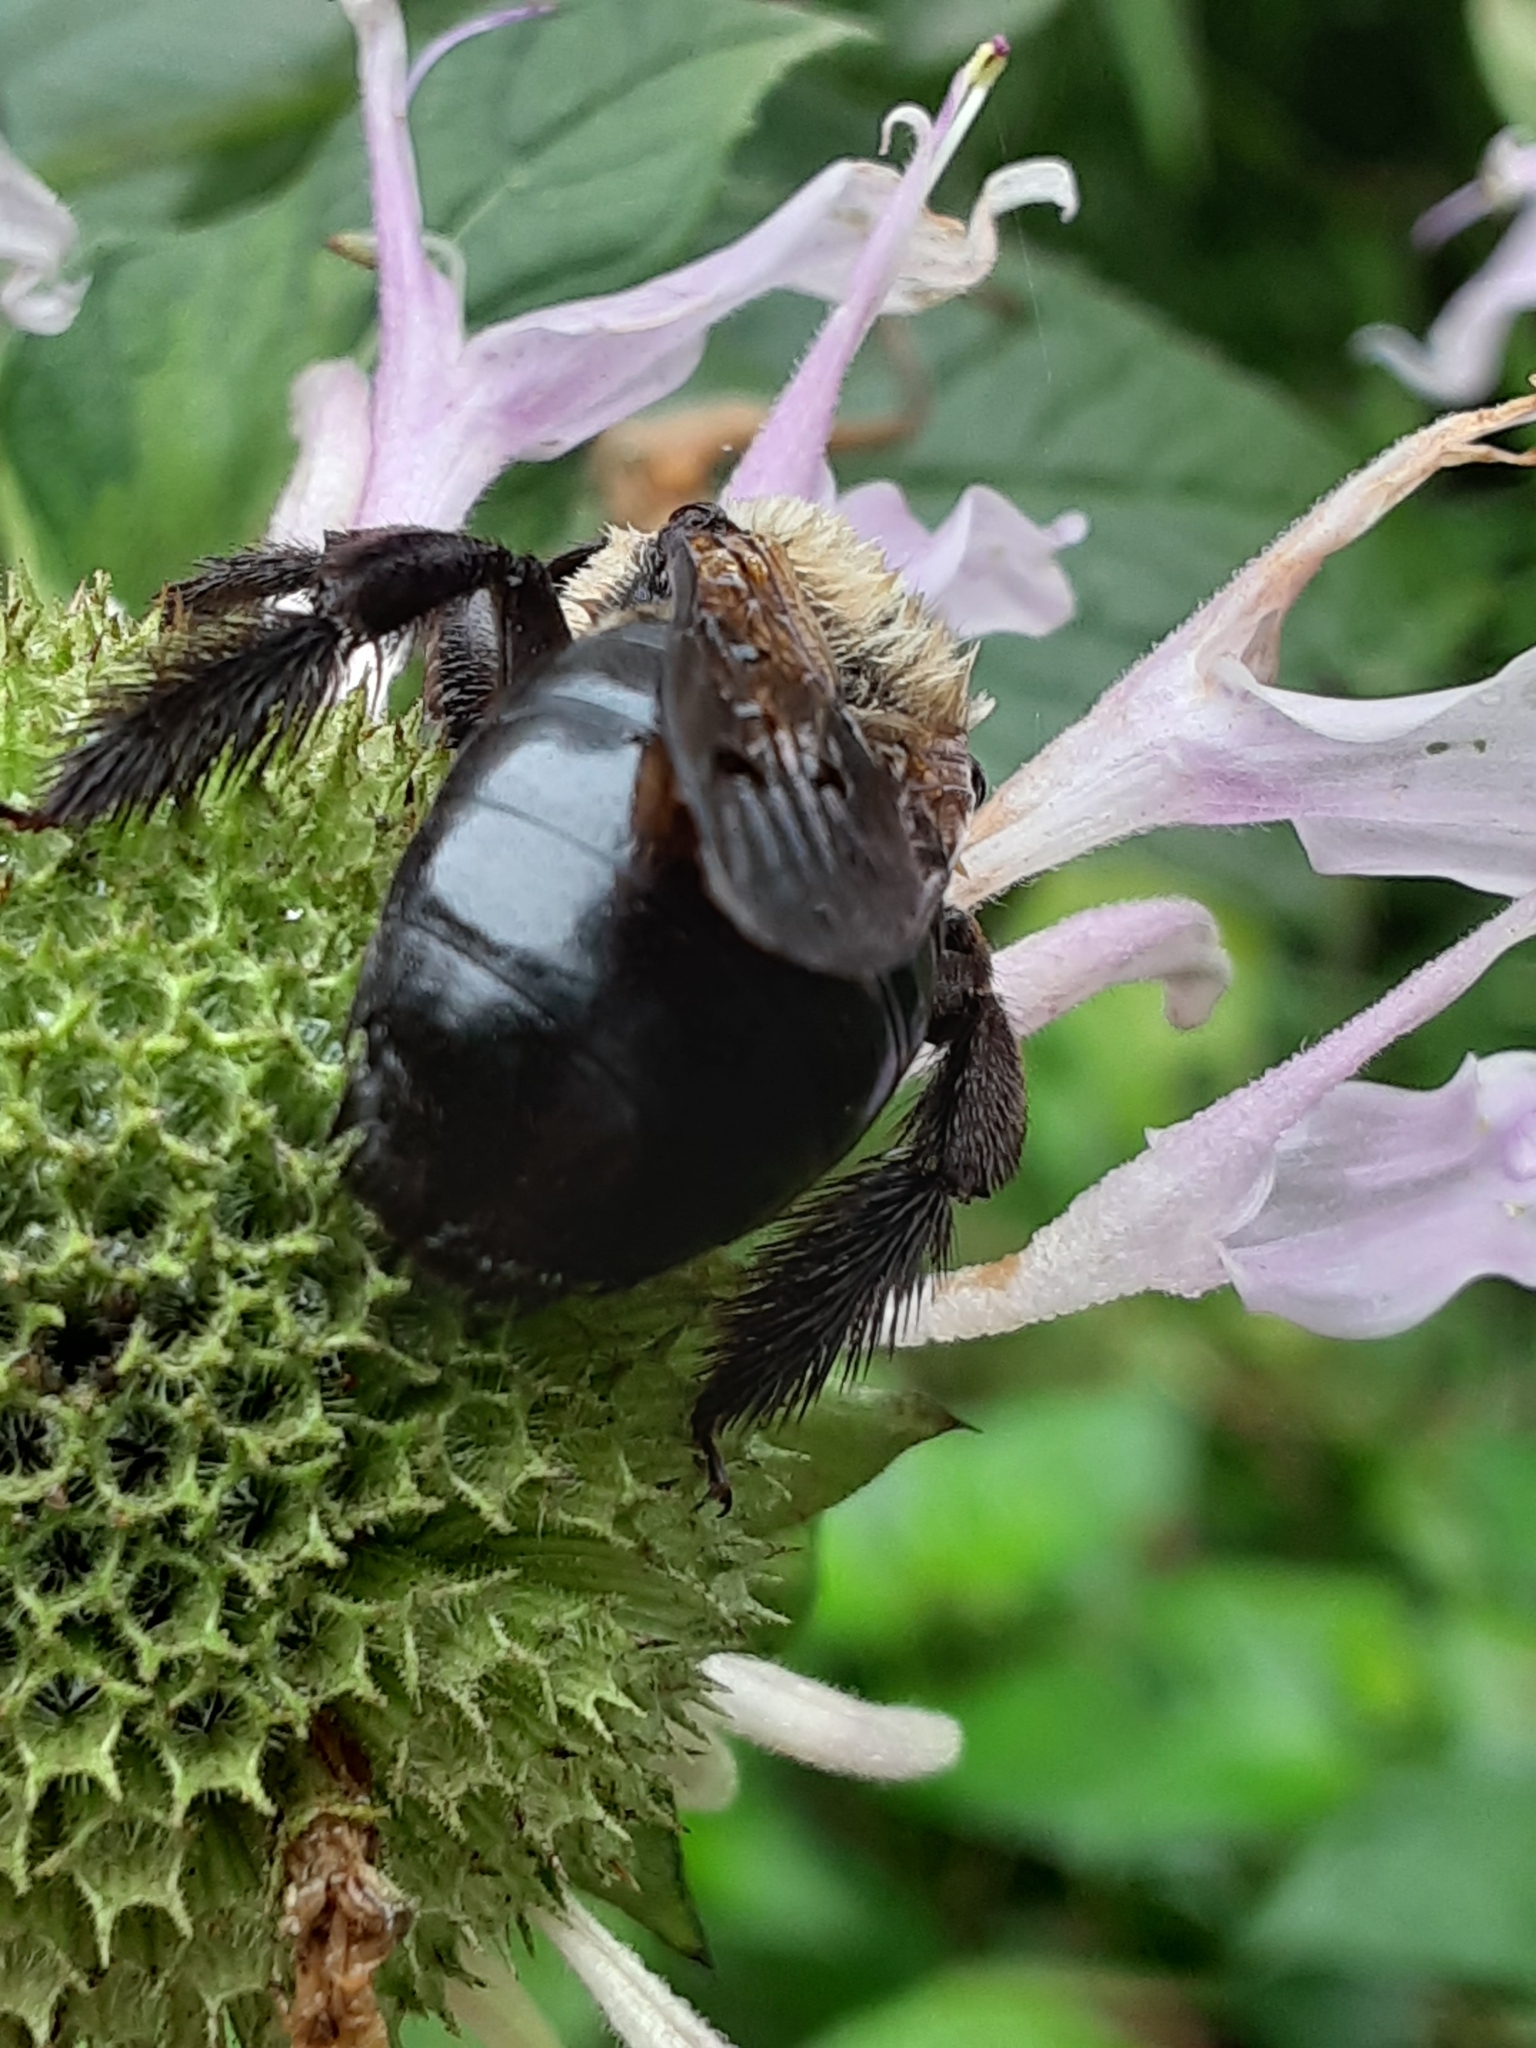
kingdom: Animalia
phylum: Arthropoda
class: Insecta
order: Hymenoptera
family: Apidae
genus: Xylocopa
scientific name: Xylocopa virginica
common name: Carpenter bee
